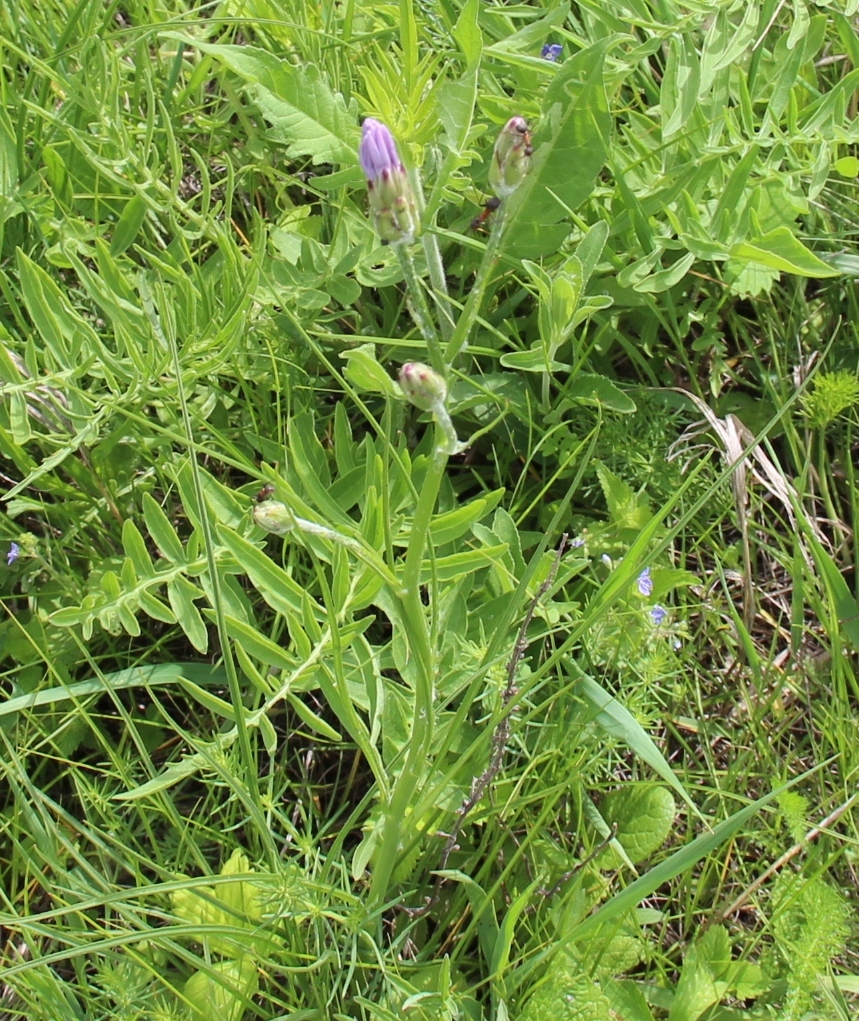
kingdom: Plantae
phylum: Tracheophyta
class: Magnoliopsida
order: Asterales
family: Asteraceae
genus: Scorzonera
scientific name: Scorzonera purpurea
